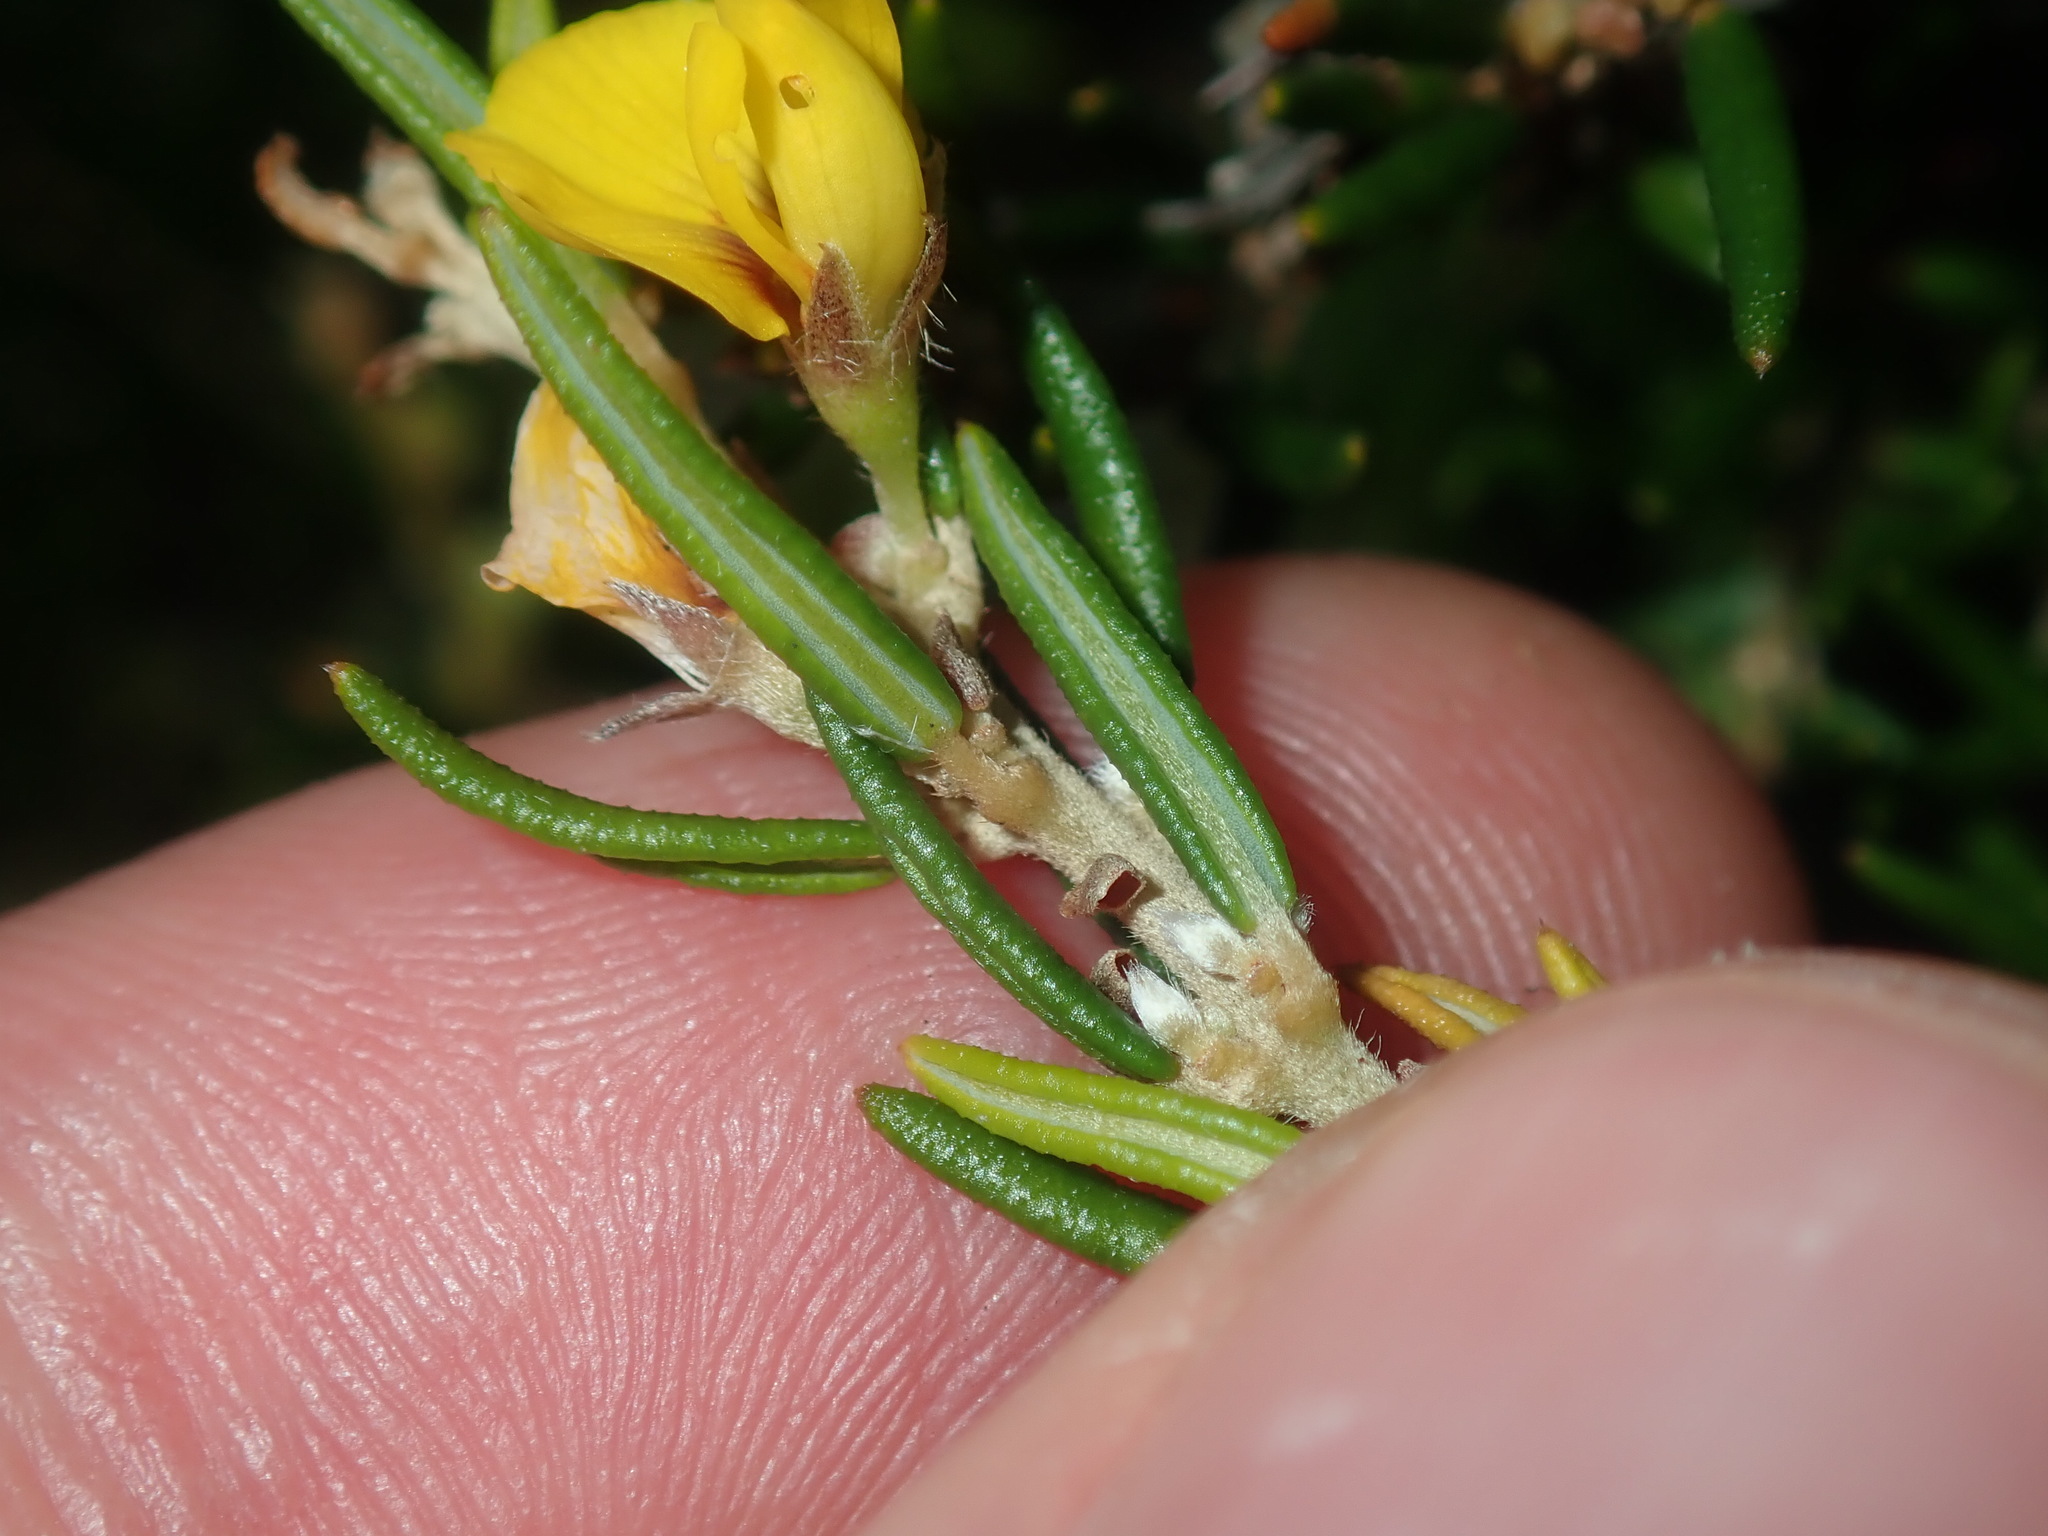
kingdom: Plantae
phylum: Tracheophyta
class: Magnoliopsida
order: Fabales
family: Fabaceae
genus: Aotus
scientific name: Aotus ericoides
